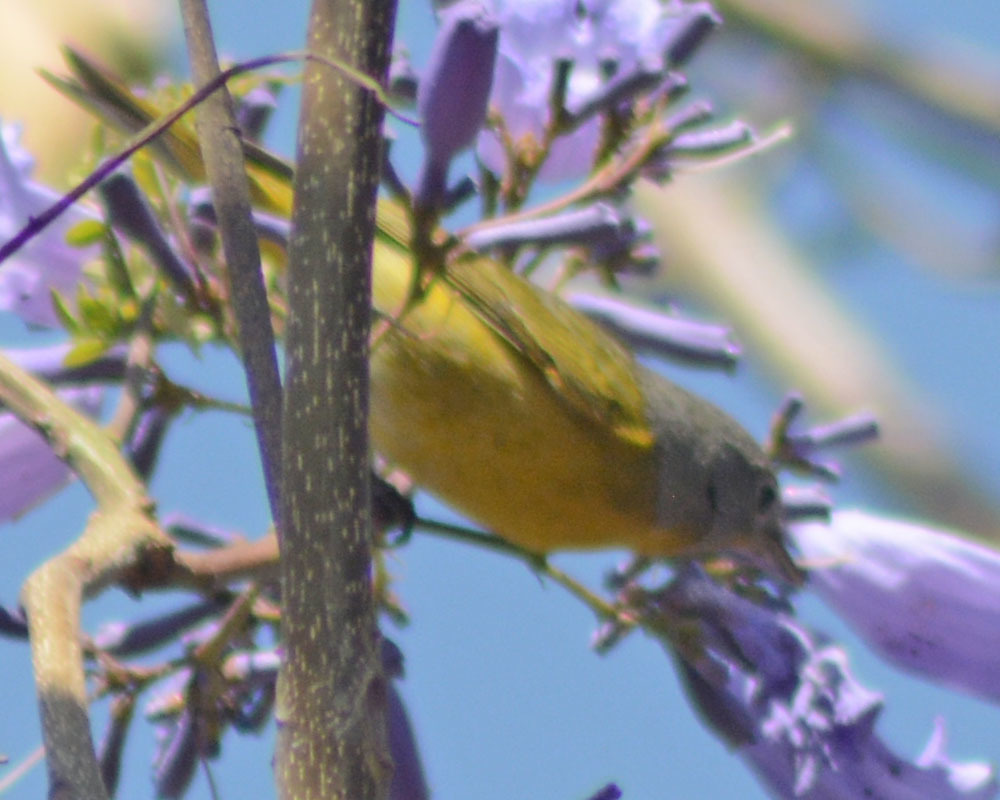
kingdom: Animalia
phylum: Chordata
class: Aves
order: Passeriformes
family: Parulidae
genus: Leiothlypis
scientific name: Leiothlypis ruficapilla
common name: Nashville warbler
